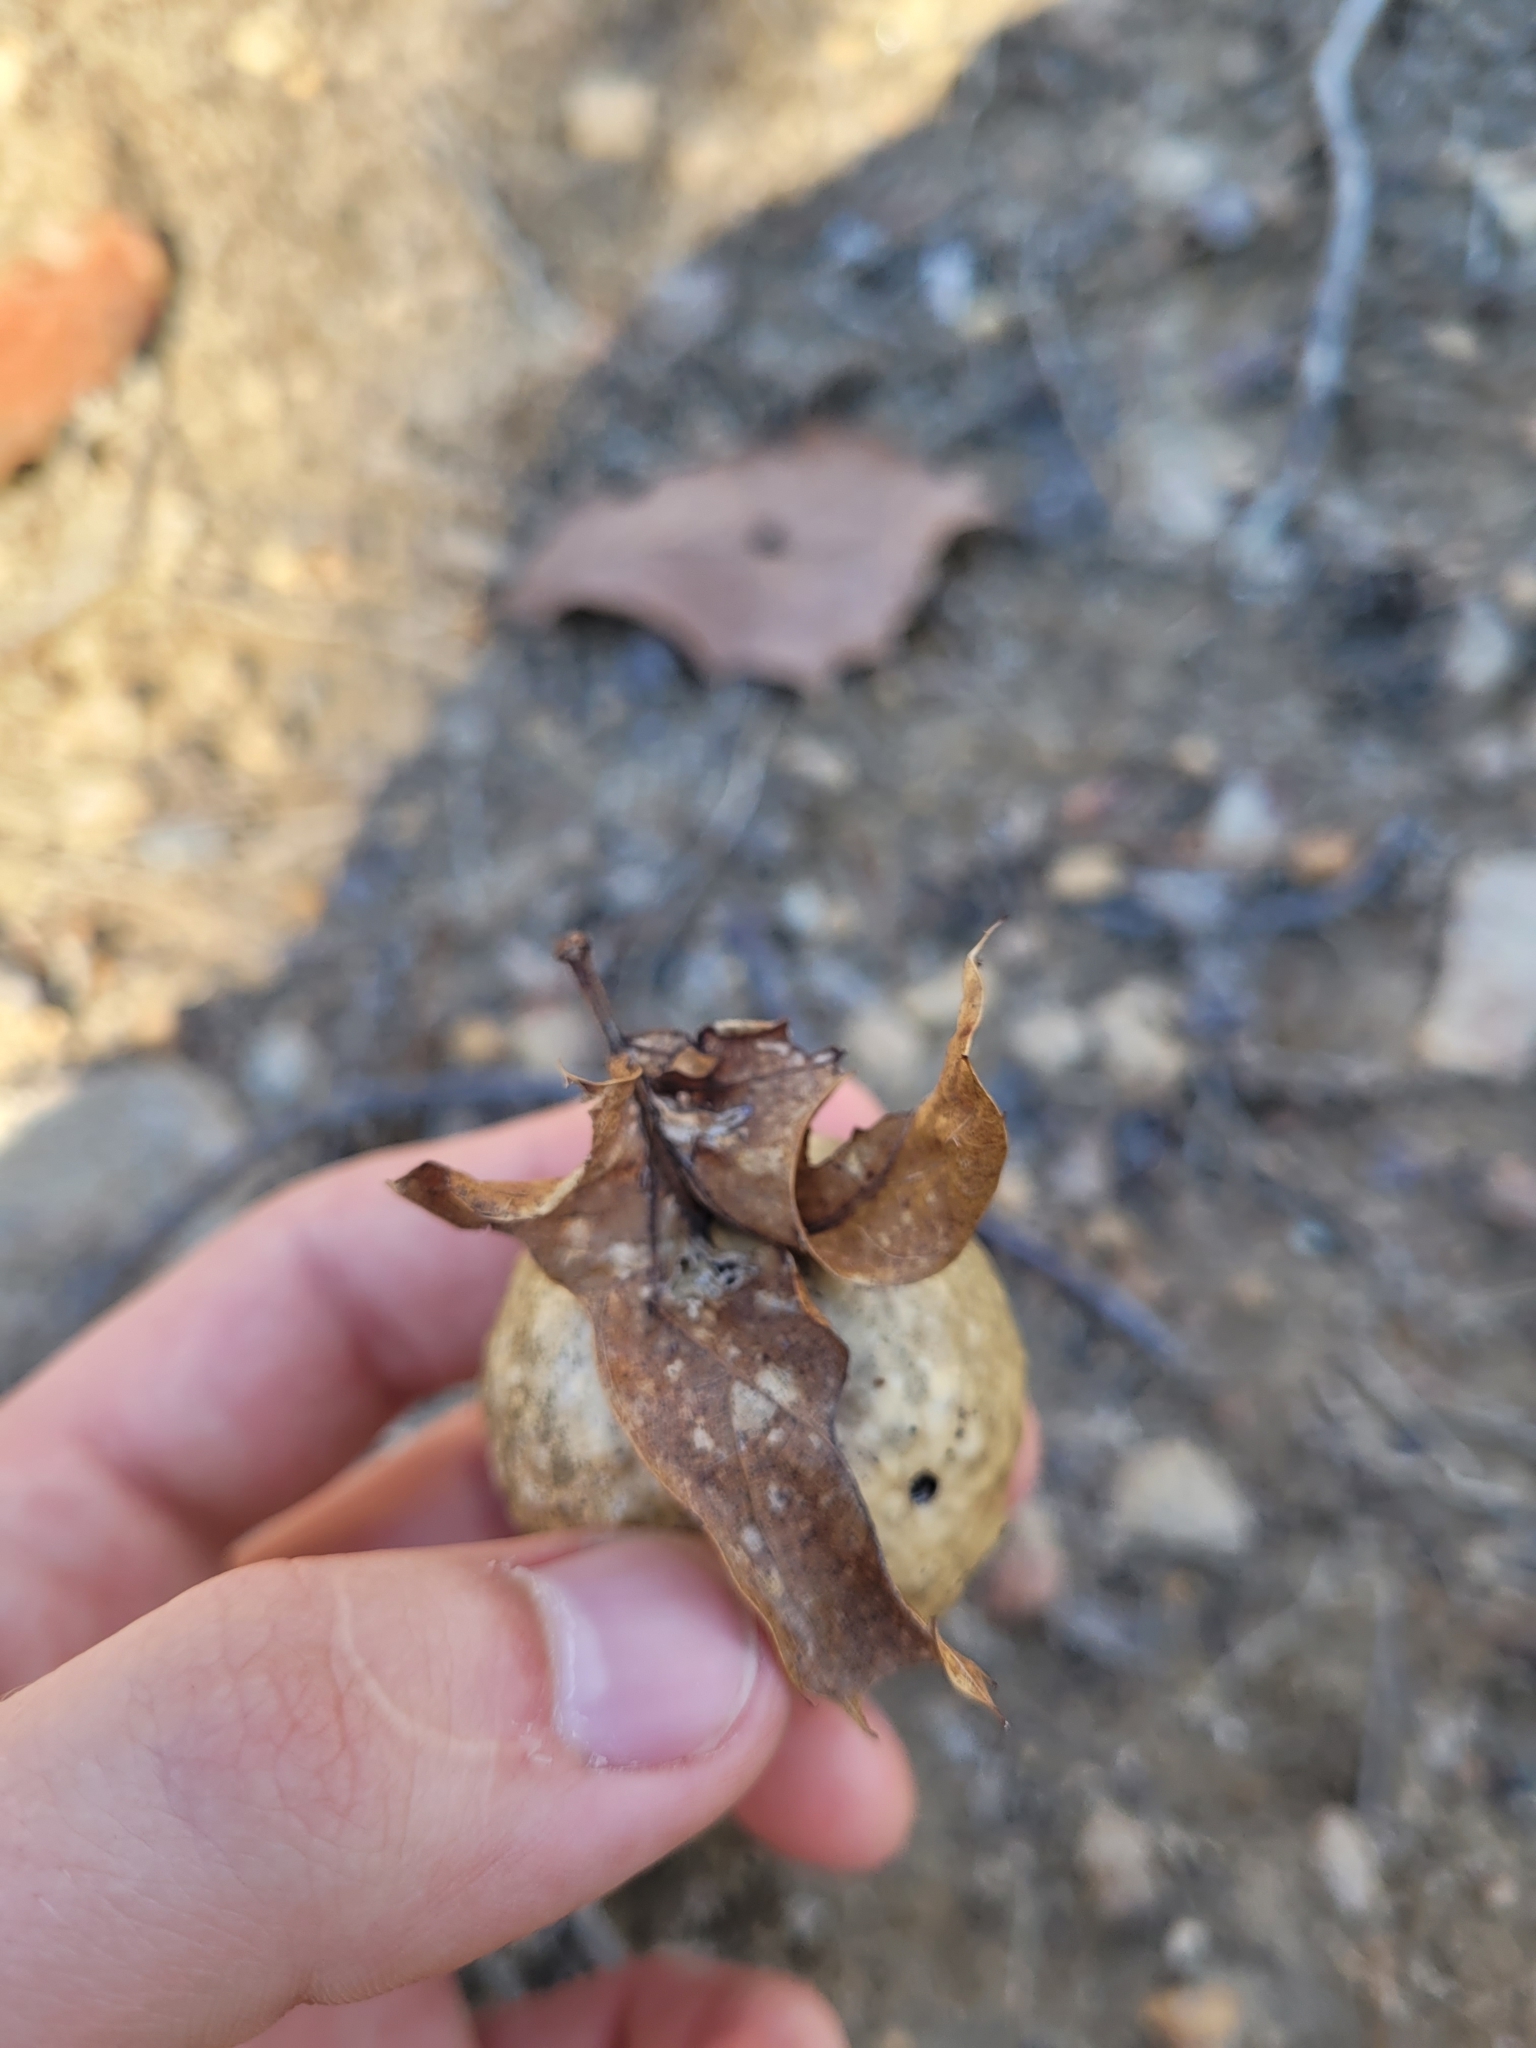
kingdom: Animalia
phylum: Arthropoda
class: Insecta
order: Hymenoptera
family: Cynipidae
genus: Amphibolips
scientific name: Amphibolips
